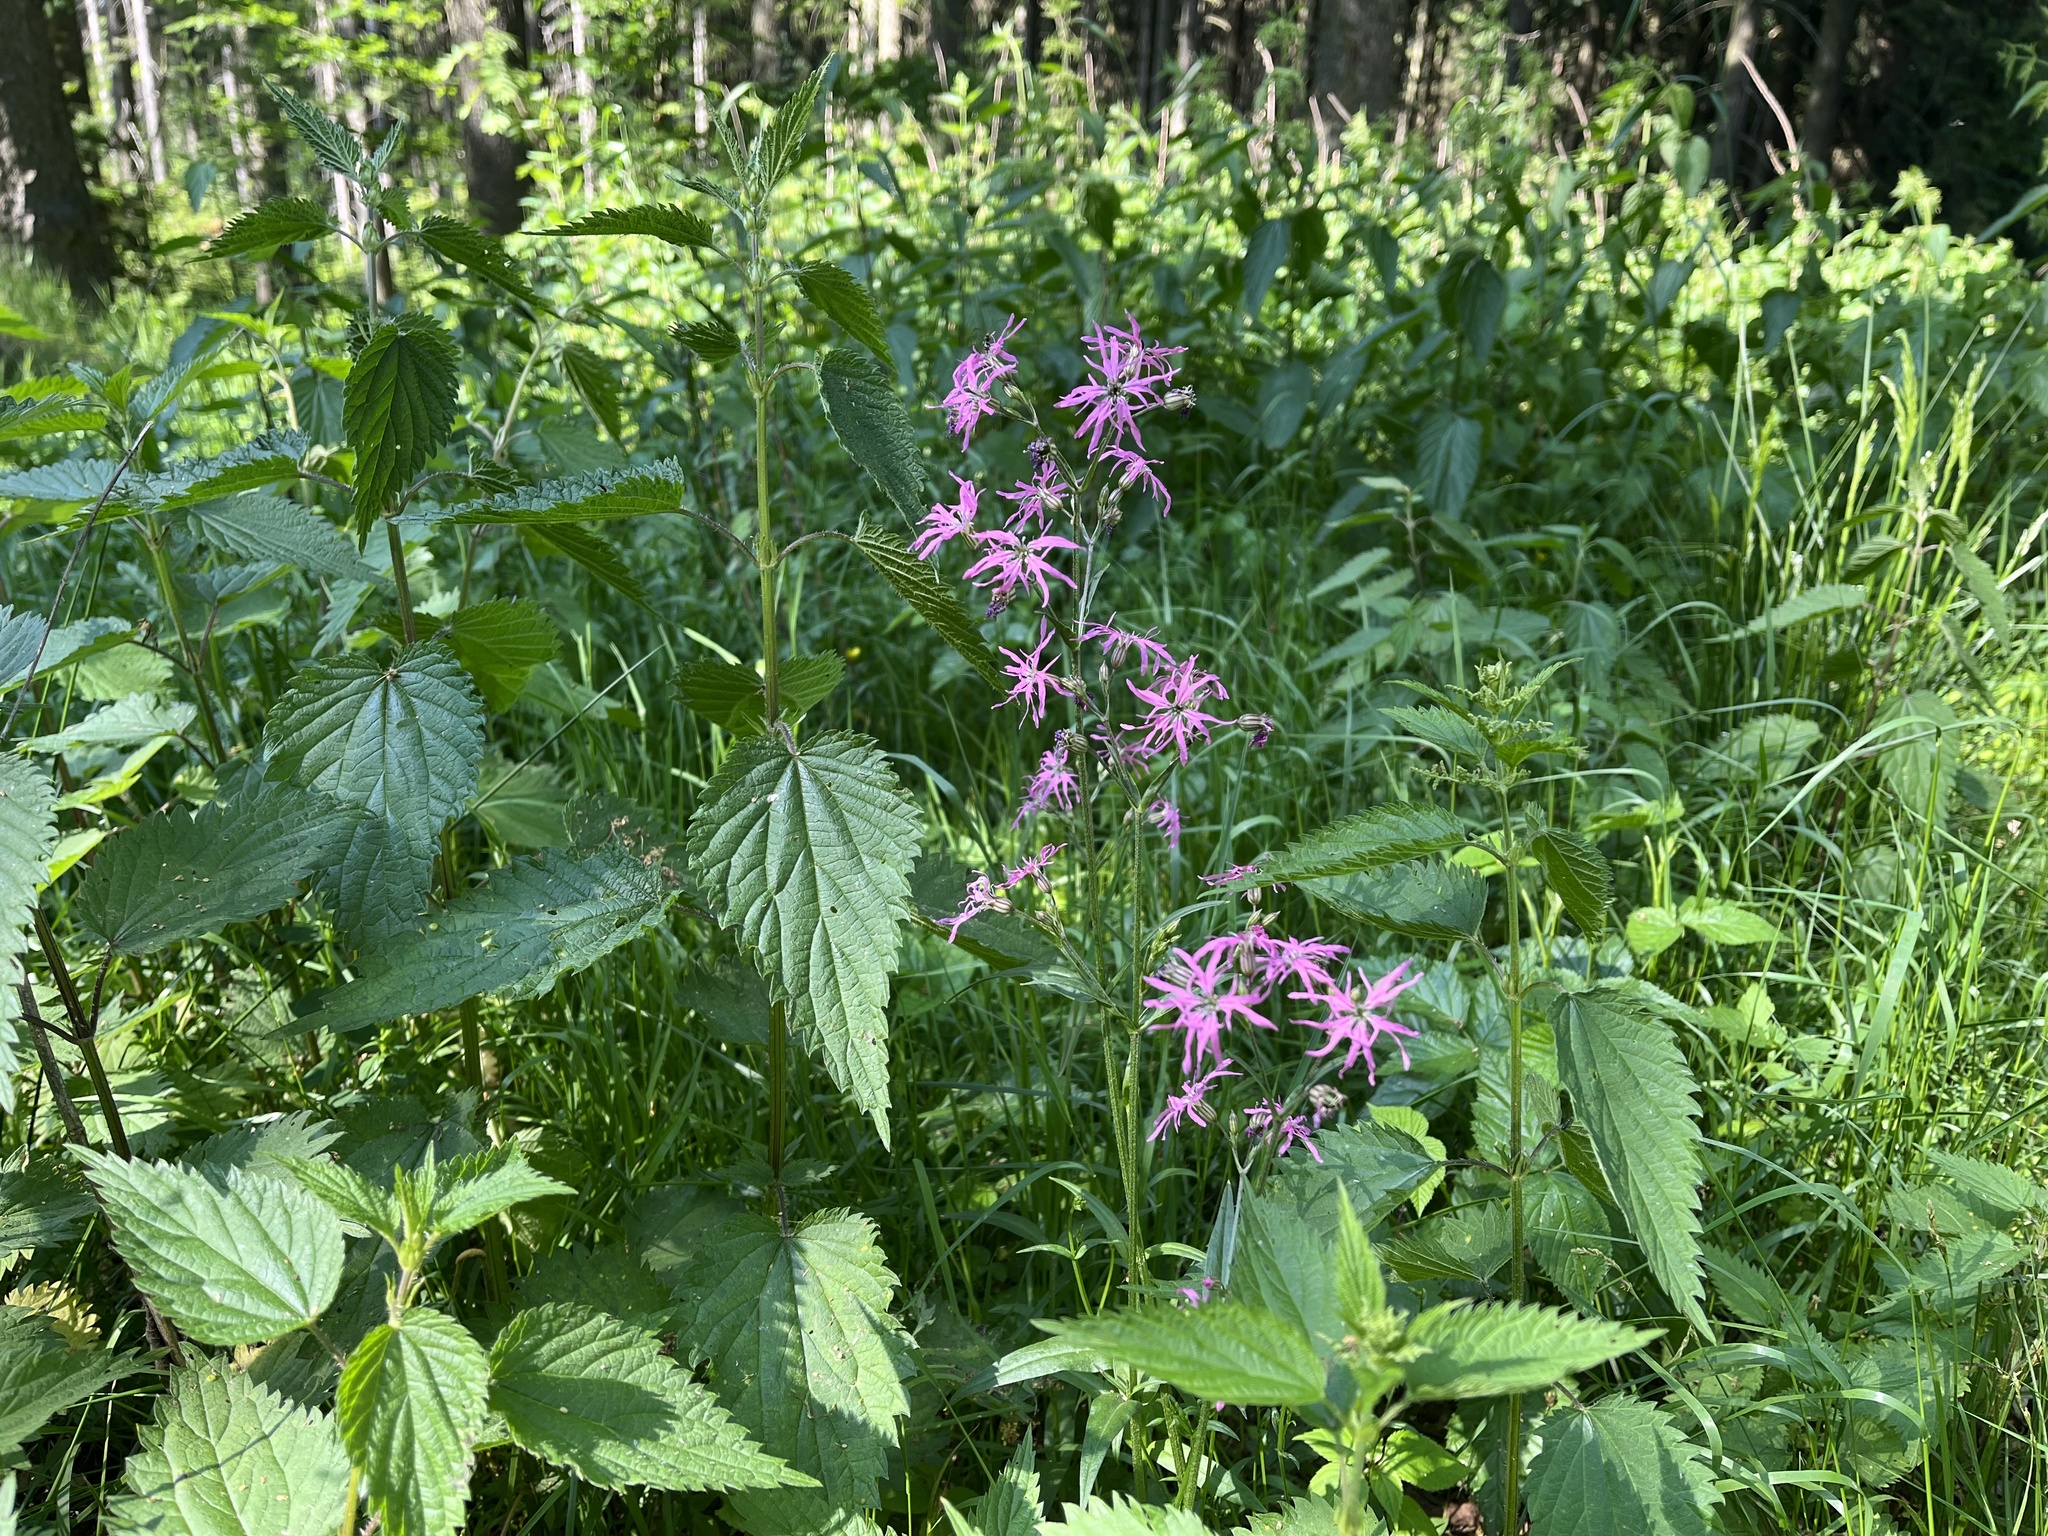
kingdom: Plantae
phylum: Tracheophyta
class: Magnoliopsida
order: Caryophyllales
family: Caryophyllaceae
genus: Silene
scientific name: Silene flos-cuculi
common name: Ragged-robin
